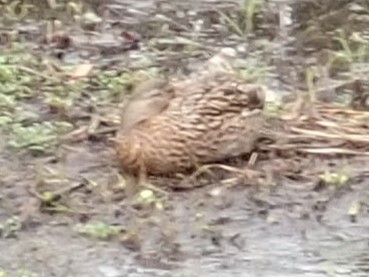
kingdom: Animalia
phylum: Chordata
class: Aves
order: Anseriformes
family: Anatidae
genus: Anas
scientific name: Anas platyrhynchos
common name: Mallard
